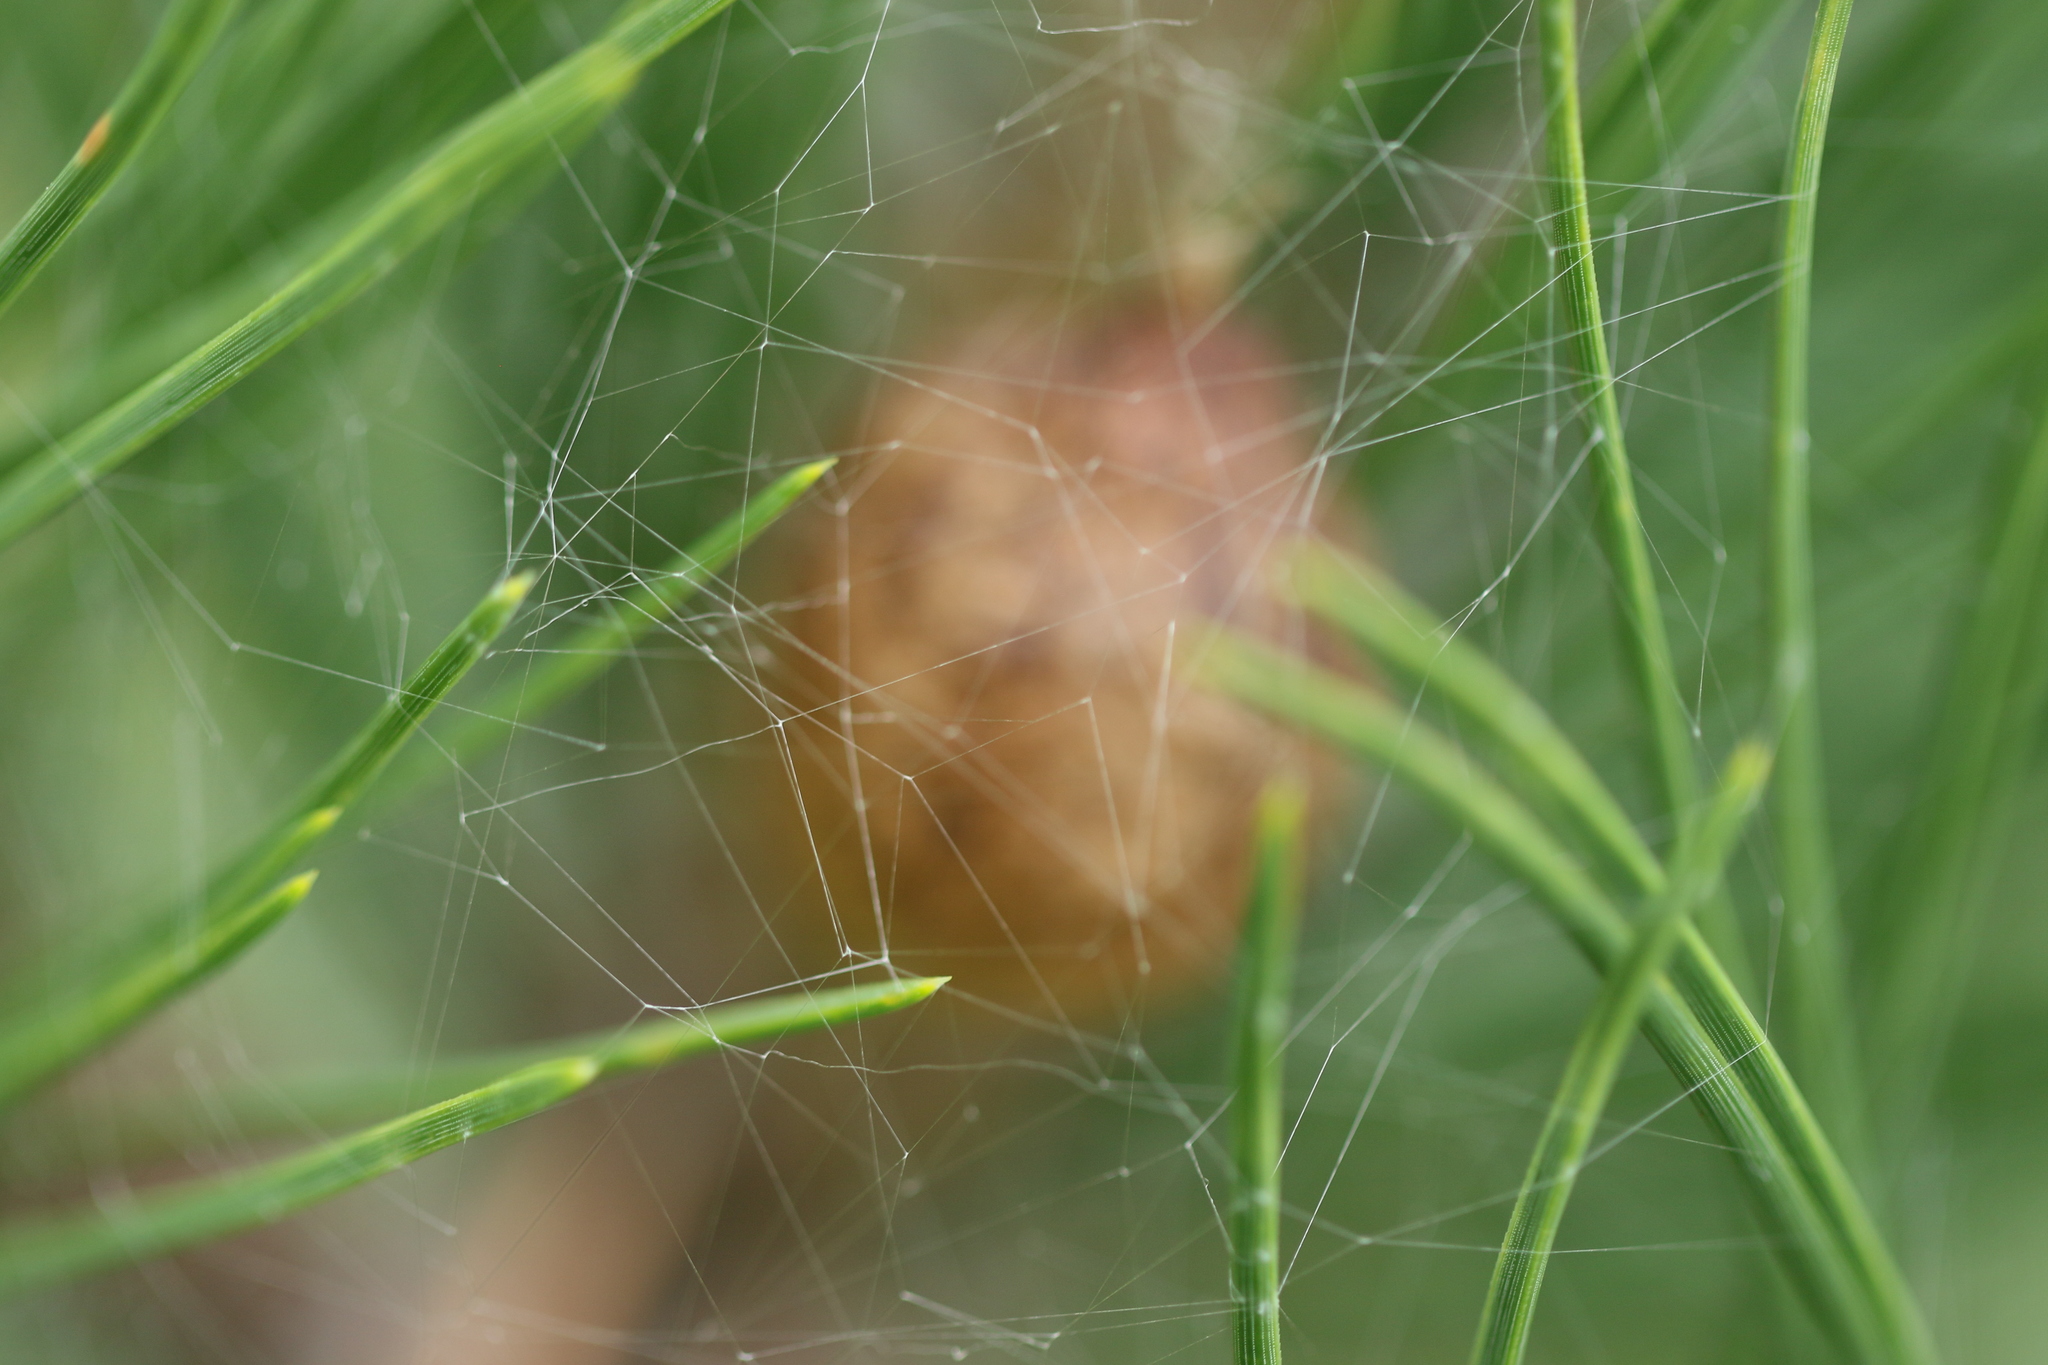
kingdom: Animalia
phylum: Arthropoda
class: Arachnida
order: Araneae
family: Araneidae
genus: Argiope
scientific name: Argiope aurantia
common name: Orb weavers
